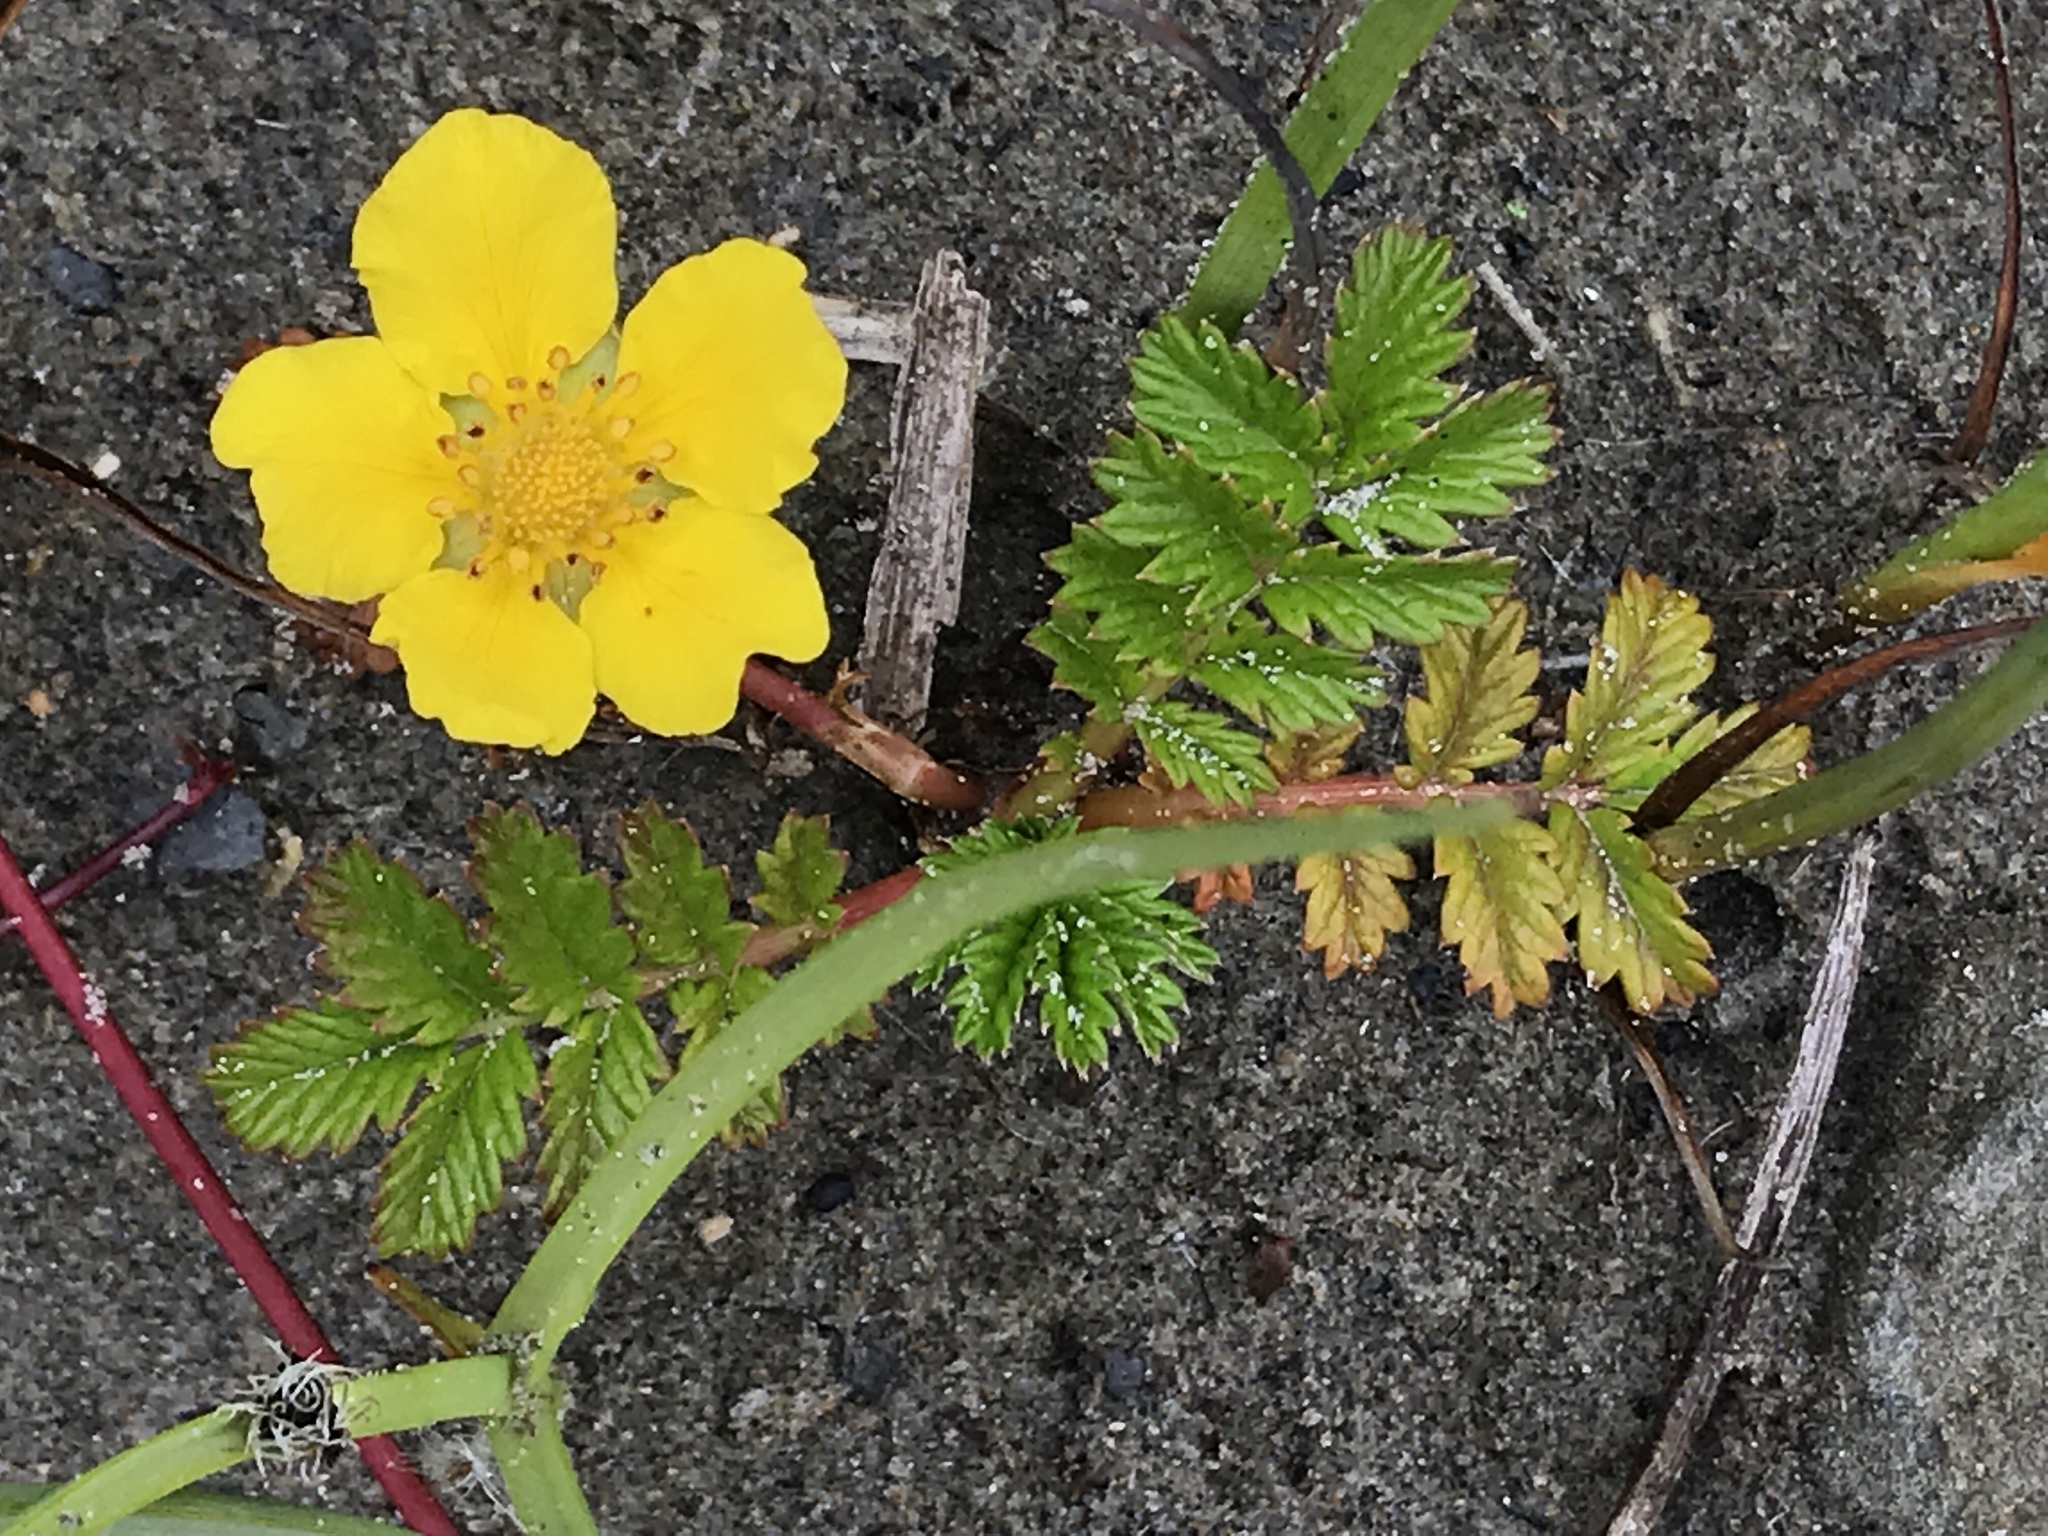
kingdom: Plantae
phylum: Tracheophyta
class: Magnoliopsida
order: Rosales
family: Rosaceae
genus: Argentina
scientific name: Argentina anserina
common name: Common silverweed
